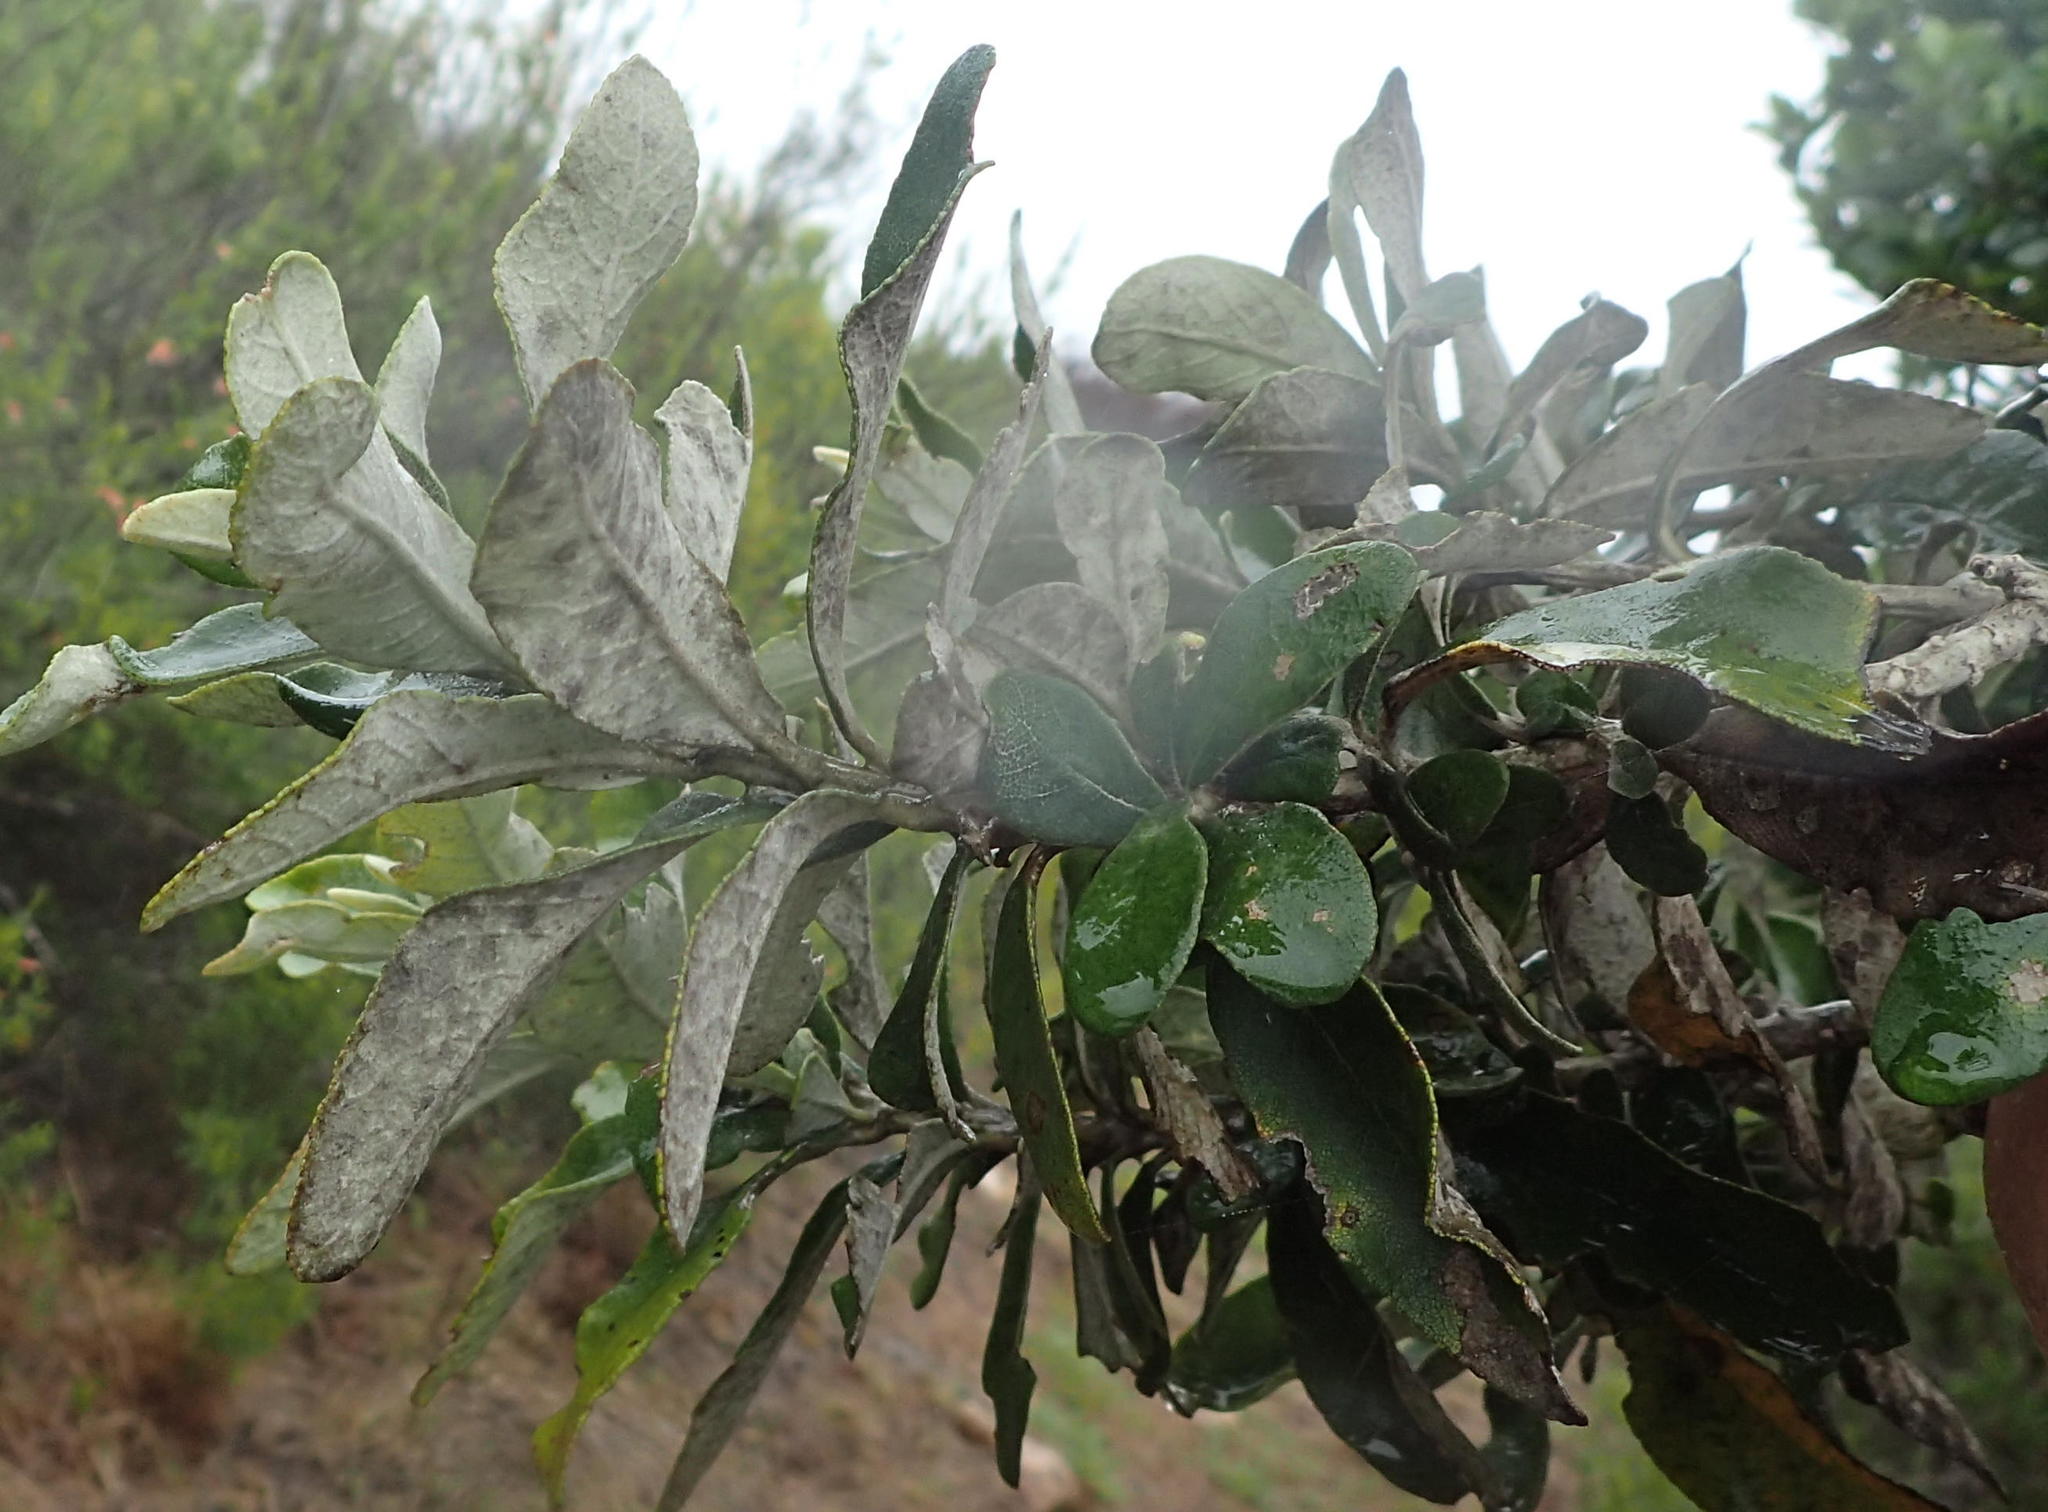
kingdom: Plantae
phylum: Tracheophyta
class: Magnoliopsida
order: Asterales
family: Asteraceae
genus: Tarchonanthus
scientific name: Tarchonanthus littoralis
